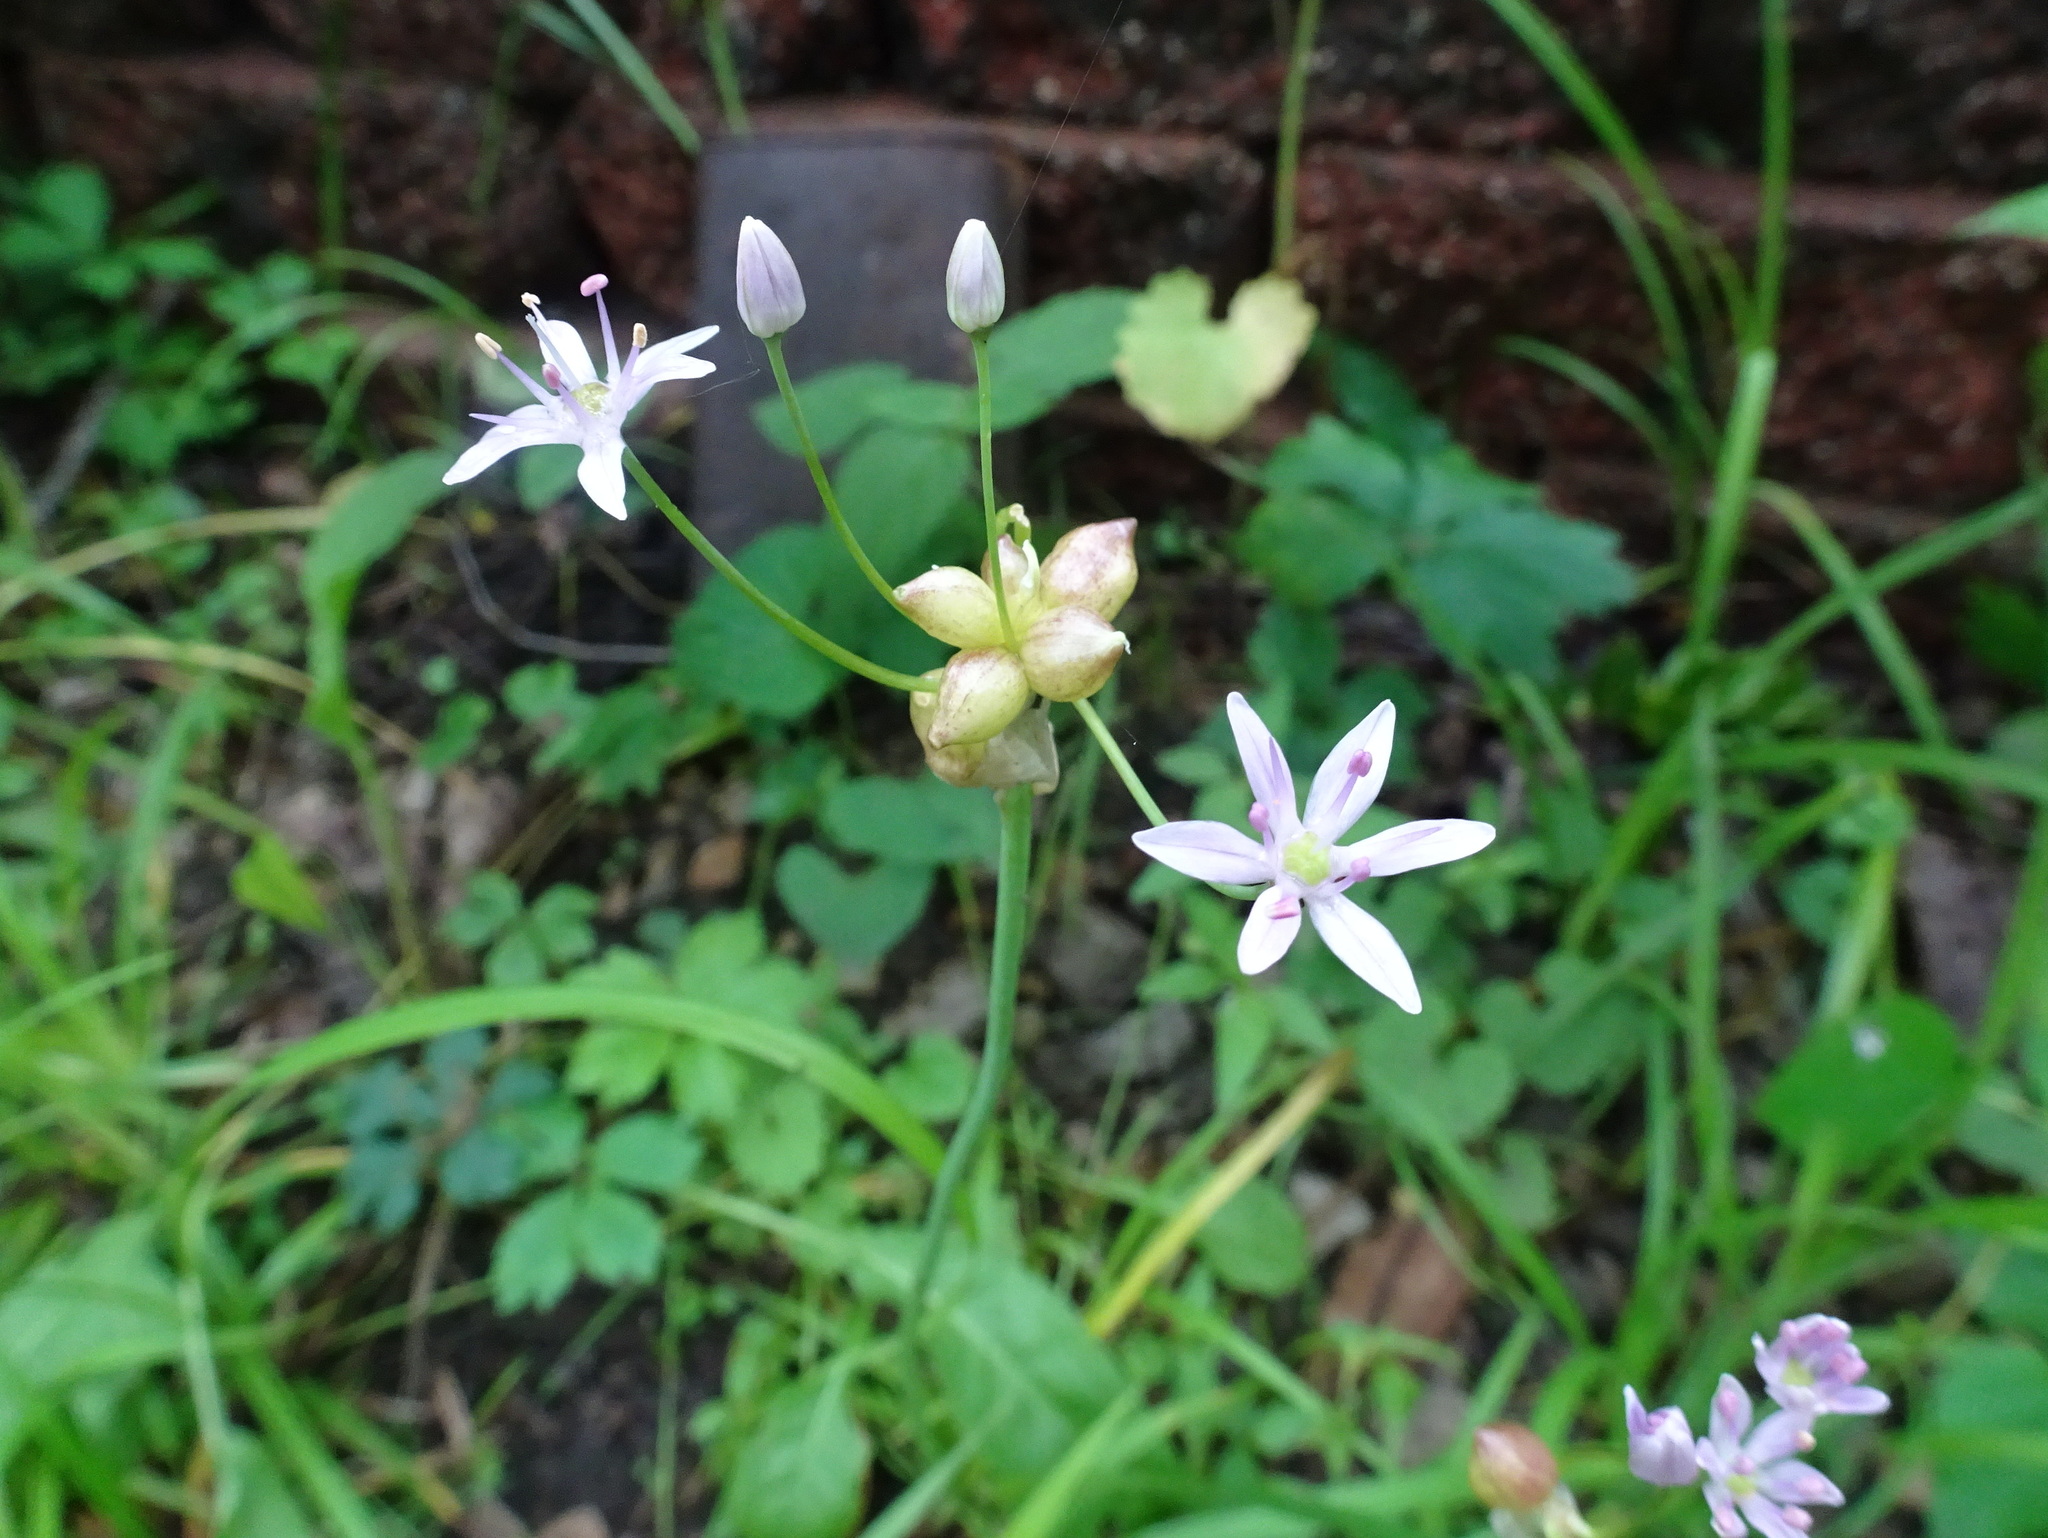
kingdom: Plantae
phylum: Tracheophyta
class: Liliopsida
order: Asparagales
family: Amaryllidaceae
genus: Allium
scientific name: Allium canadense
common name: Meadow garlic
